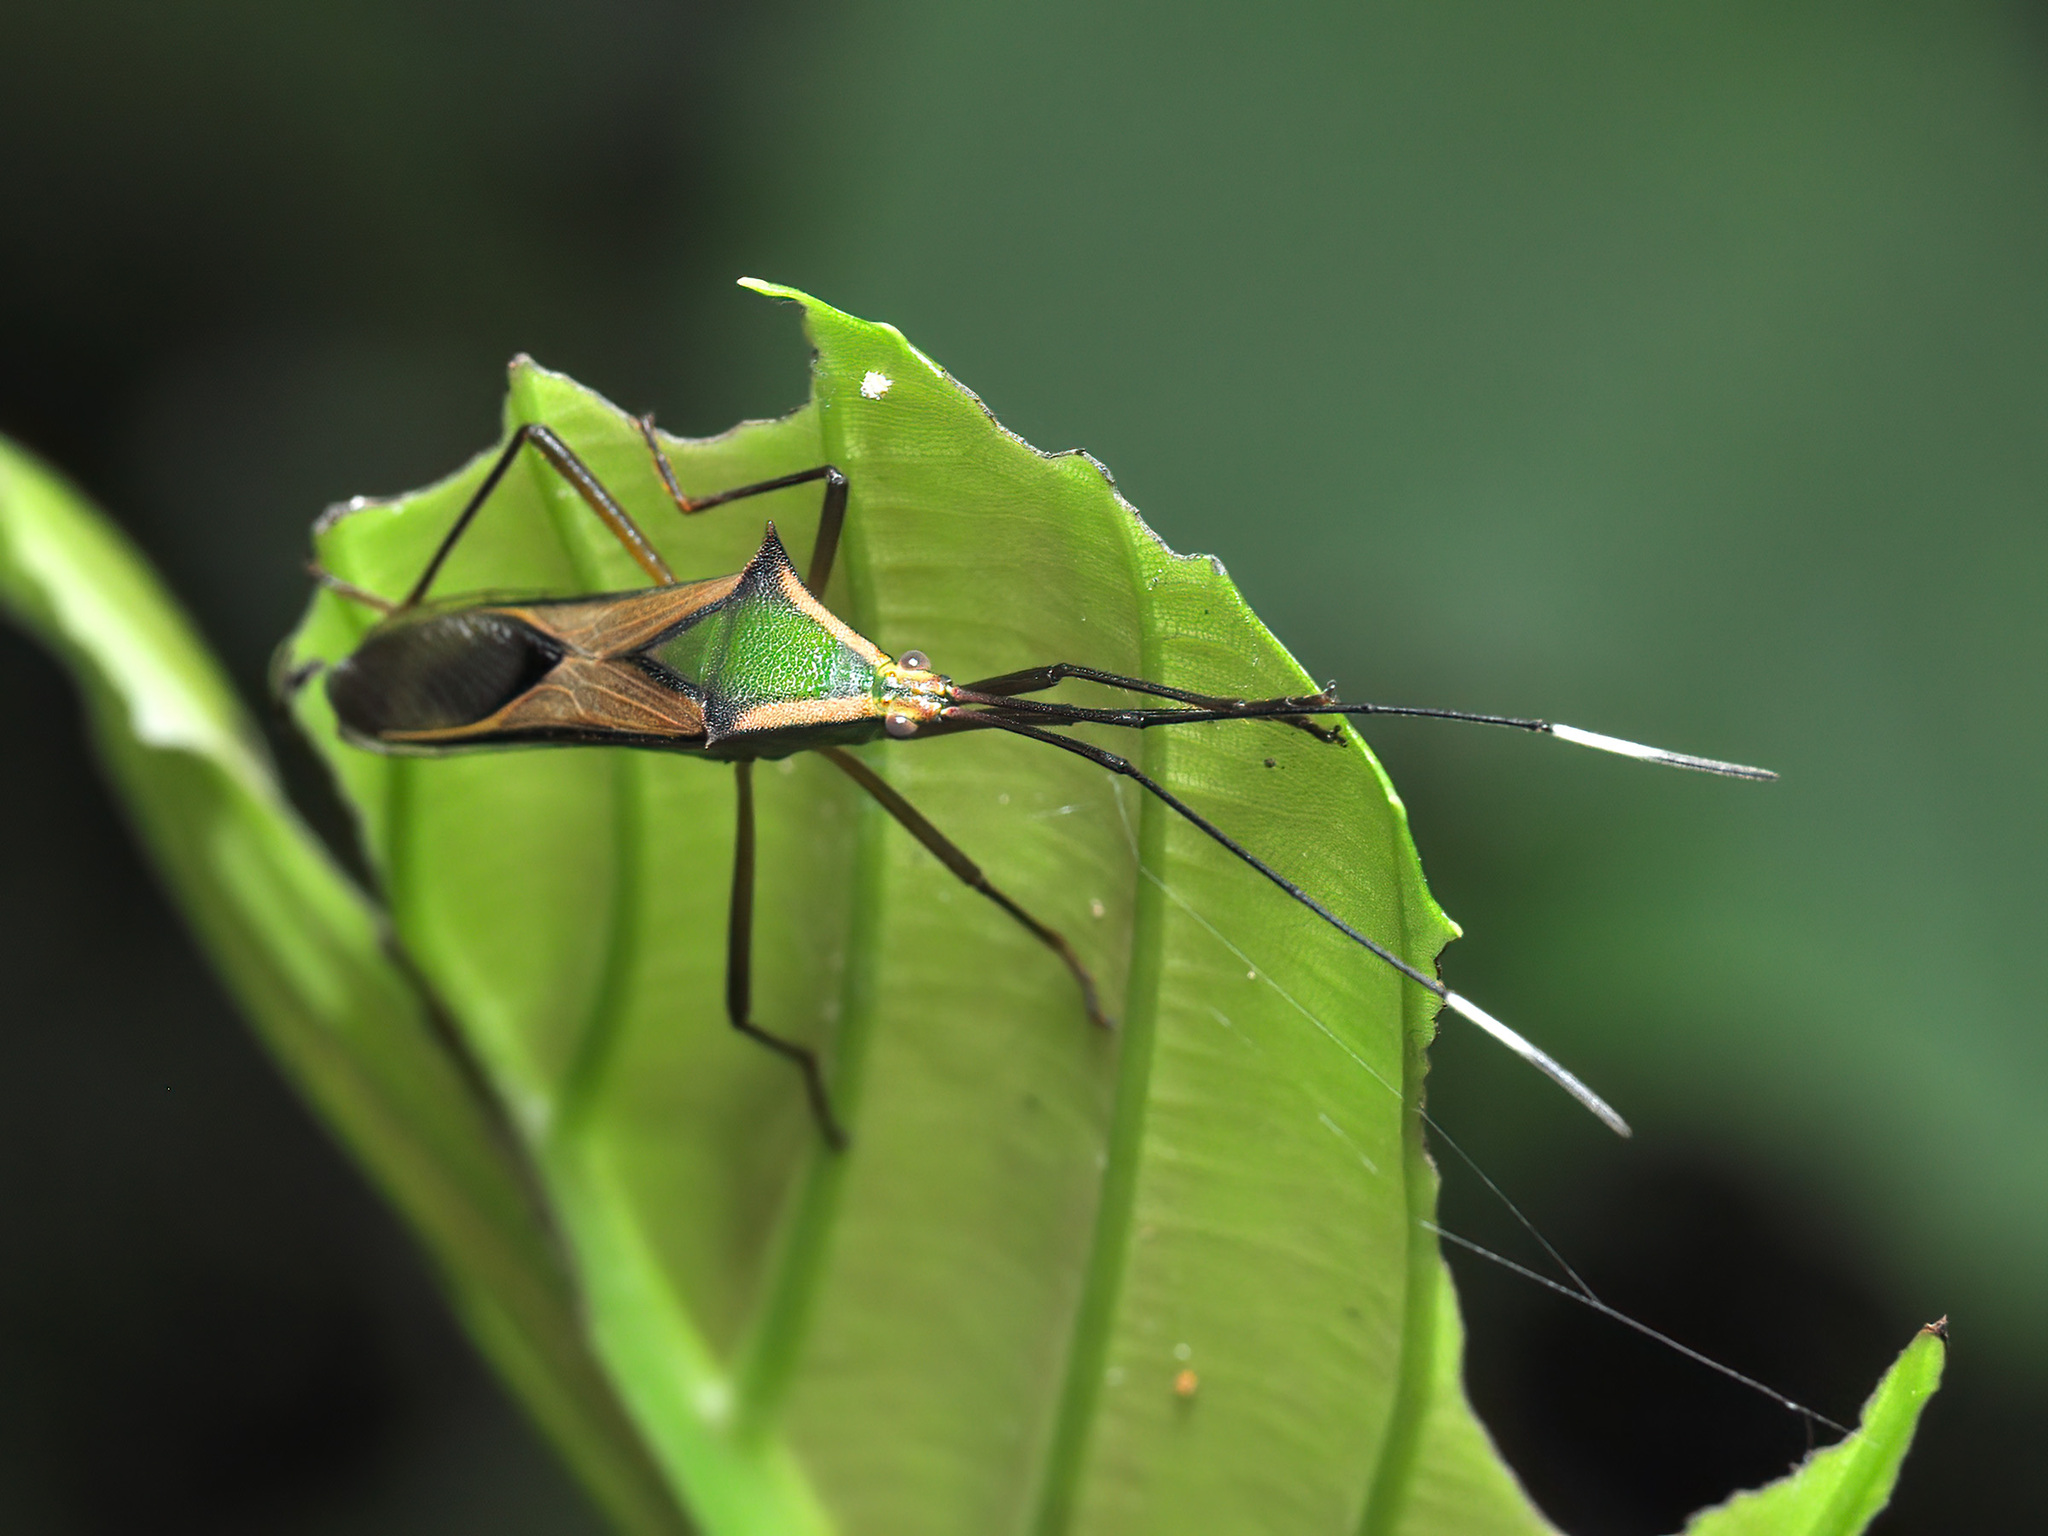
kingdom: Animalia
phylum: Arthropoda
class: Insecta
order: Hemiptera
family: Coreidae
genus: Homoeocerus
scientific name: Homoeocerus angulatus
